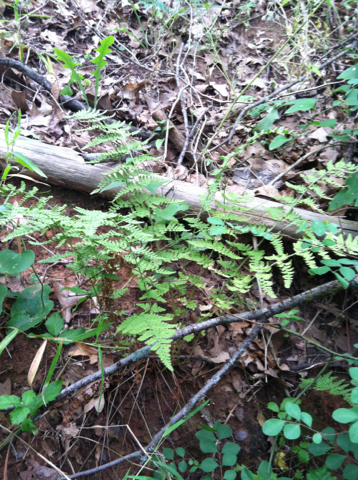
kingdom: Plantae
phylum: Tracheophyta
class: Polypodiopsida
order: Polypodiales
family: Woodsiaceae
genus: Physematium
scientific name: Physematium obtusum
